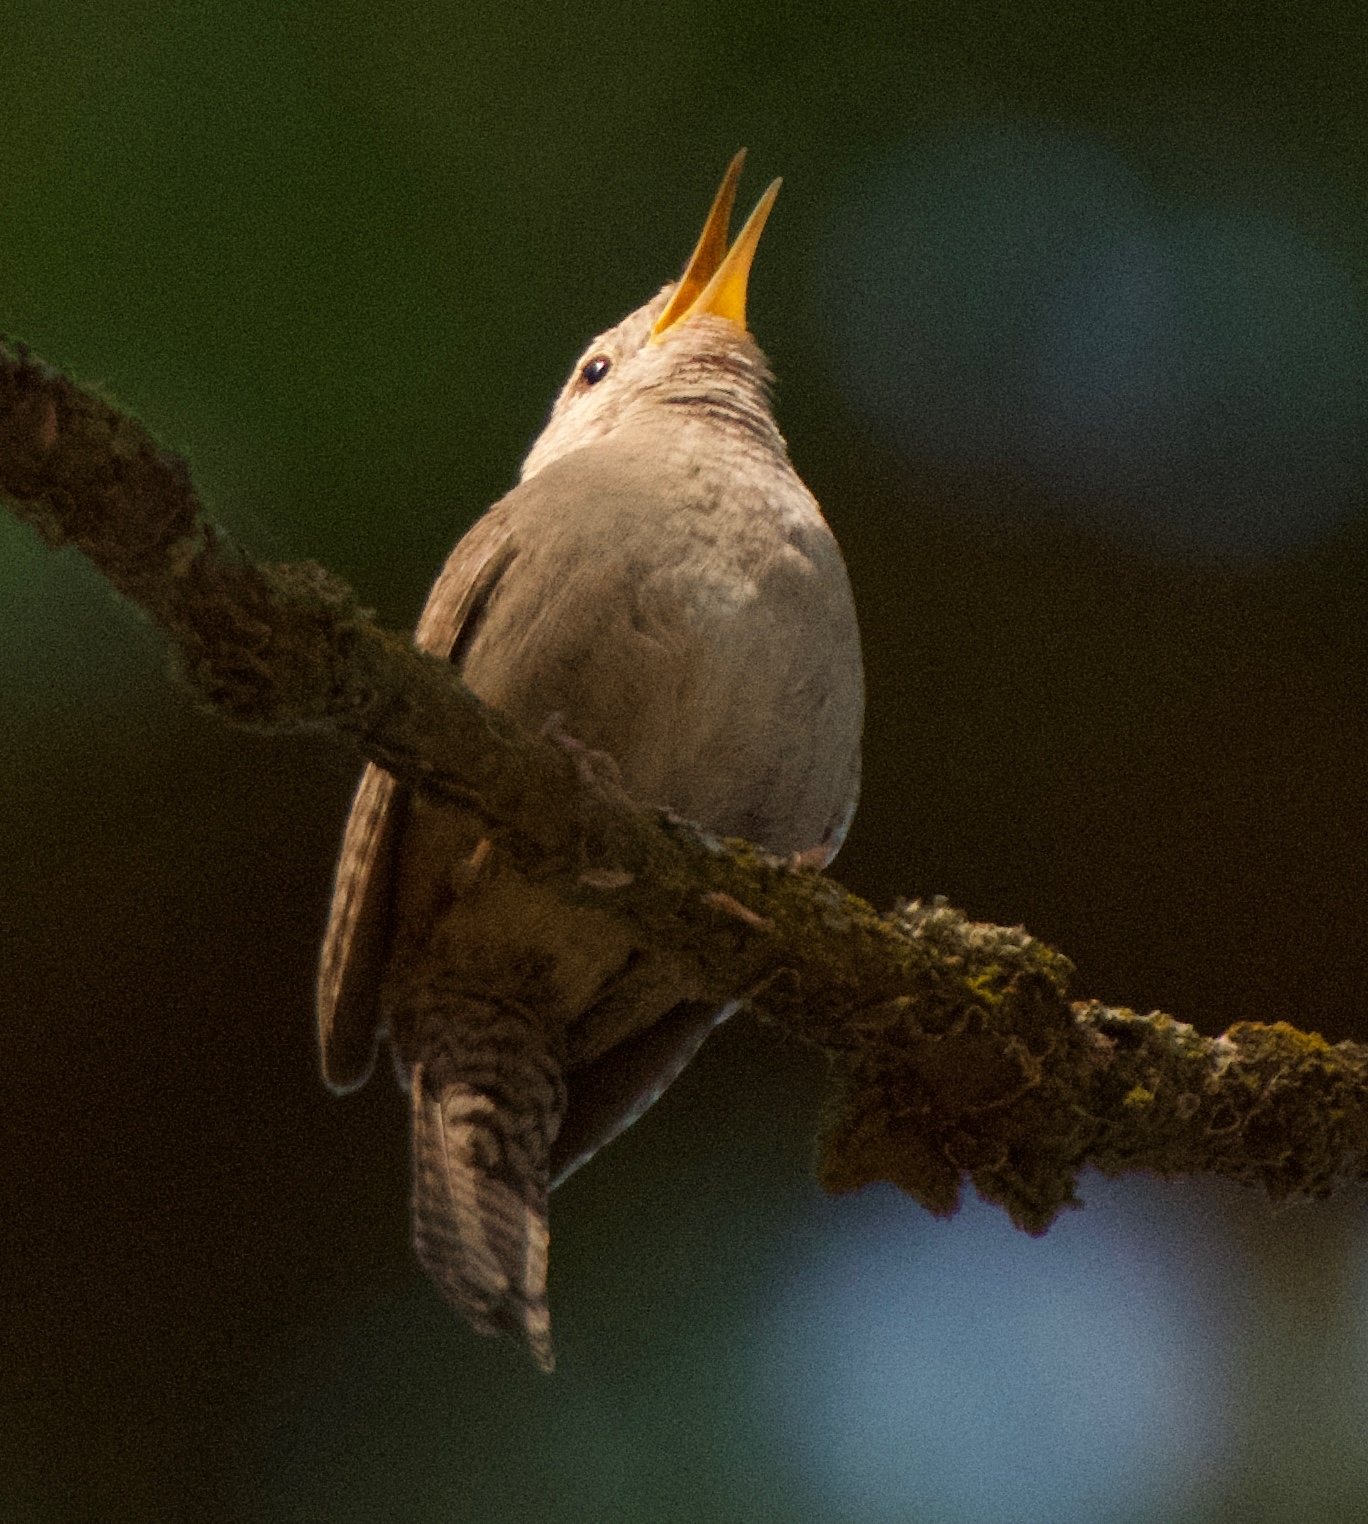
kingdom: Animalia
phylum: Chordata
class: Aves
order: Passeriformes
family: Troglodytidae
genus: Troglodytes
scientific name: Troglodytes aedon
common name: House wren
